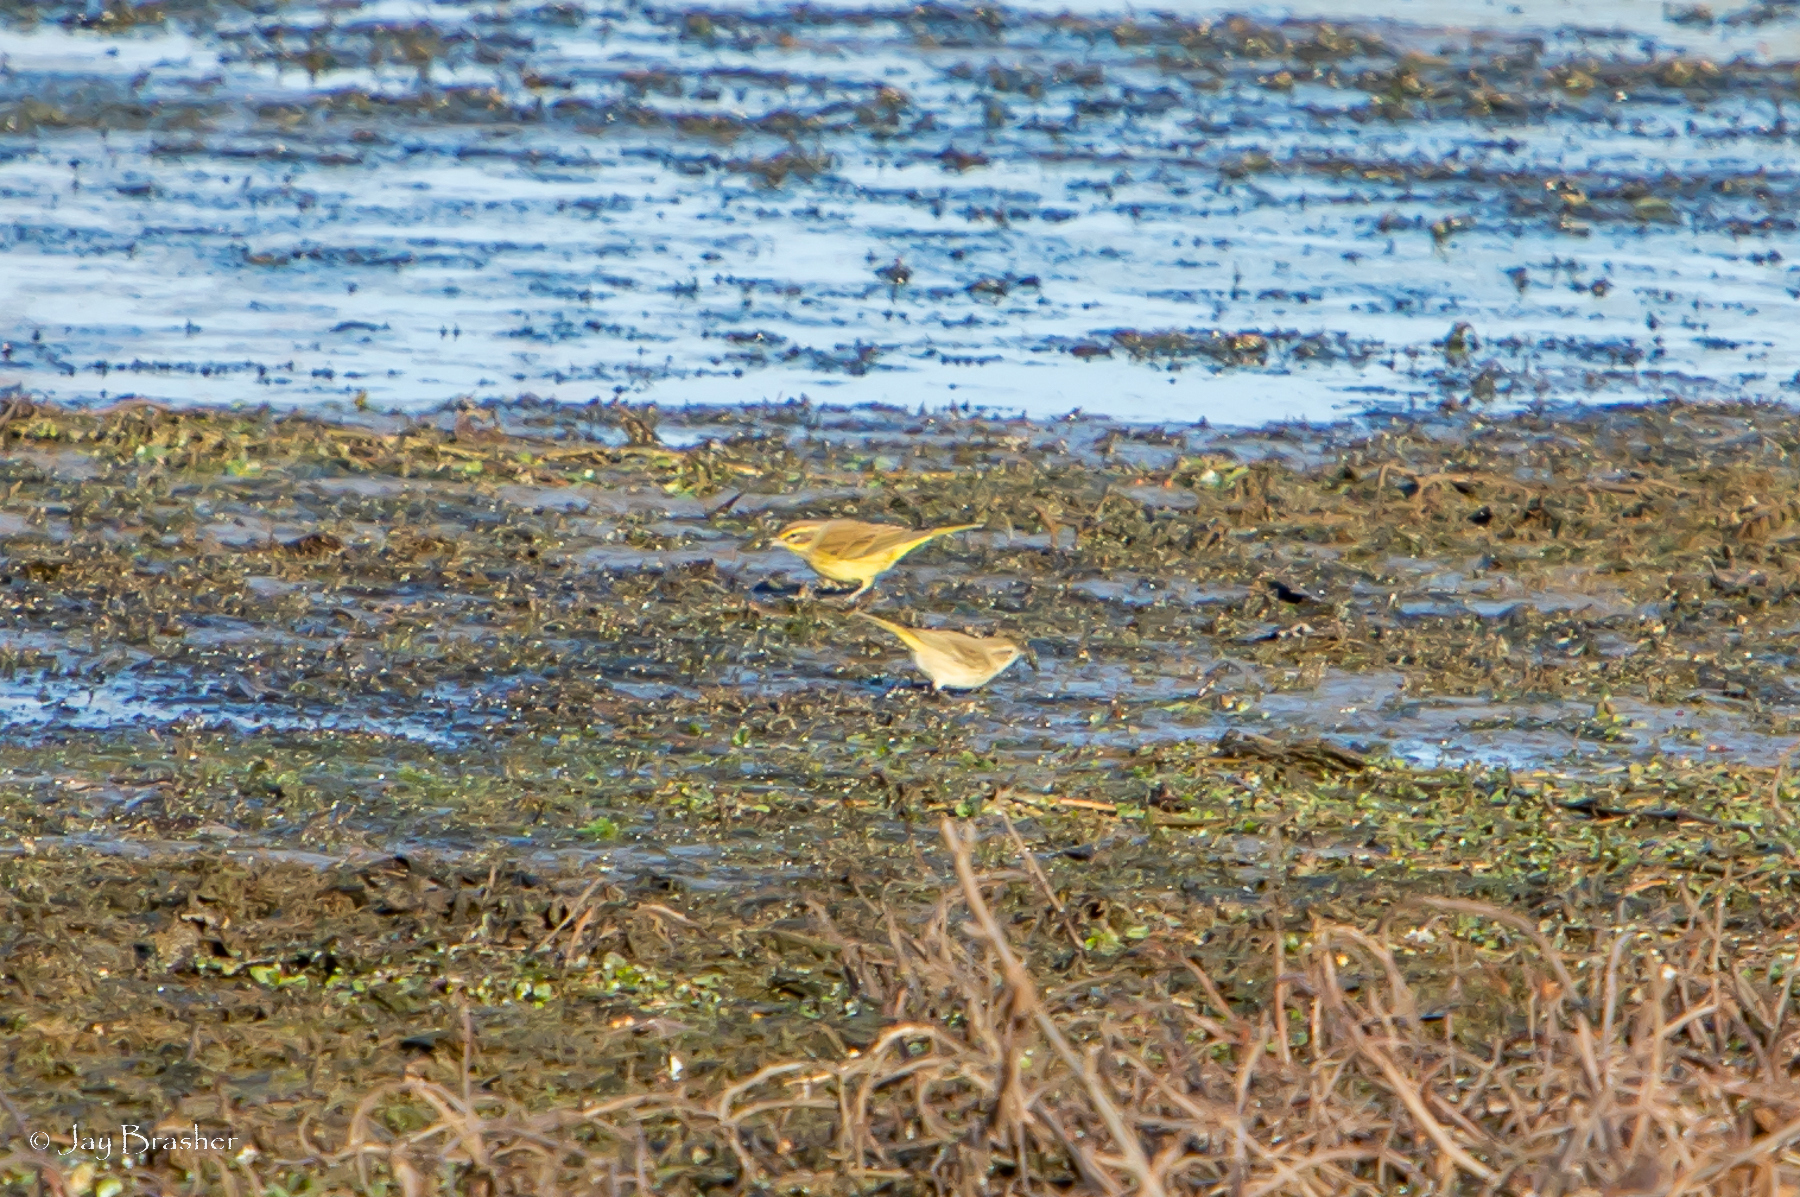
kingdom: Animalia
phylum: Chordata
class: Aves
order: Passeriformes
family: Parulidae
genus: Setophaga
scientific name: Setophaga palmarum
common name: Palm warbler
